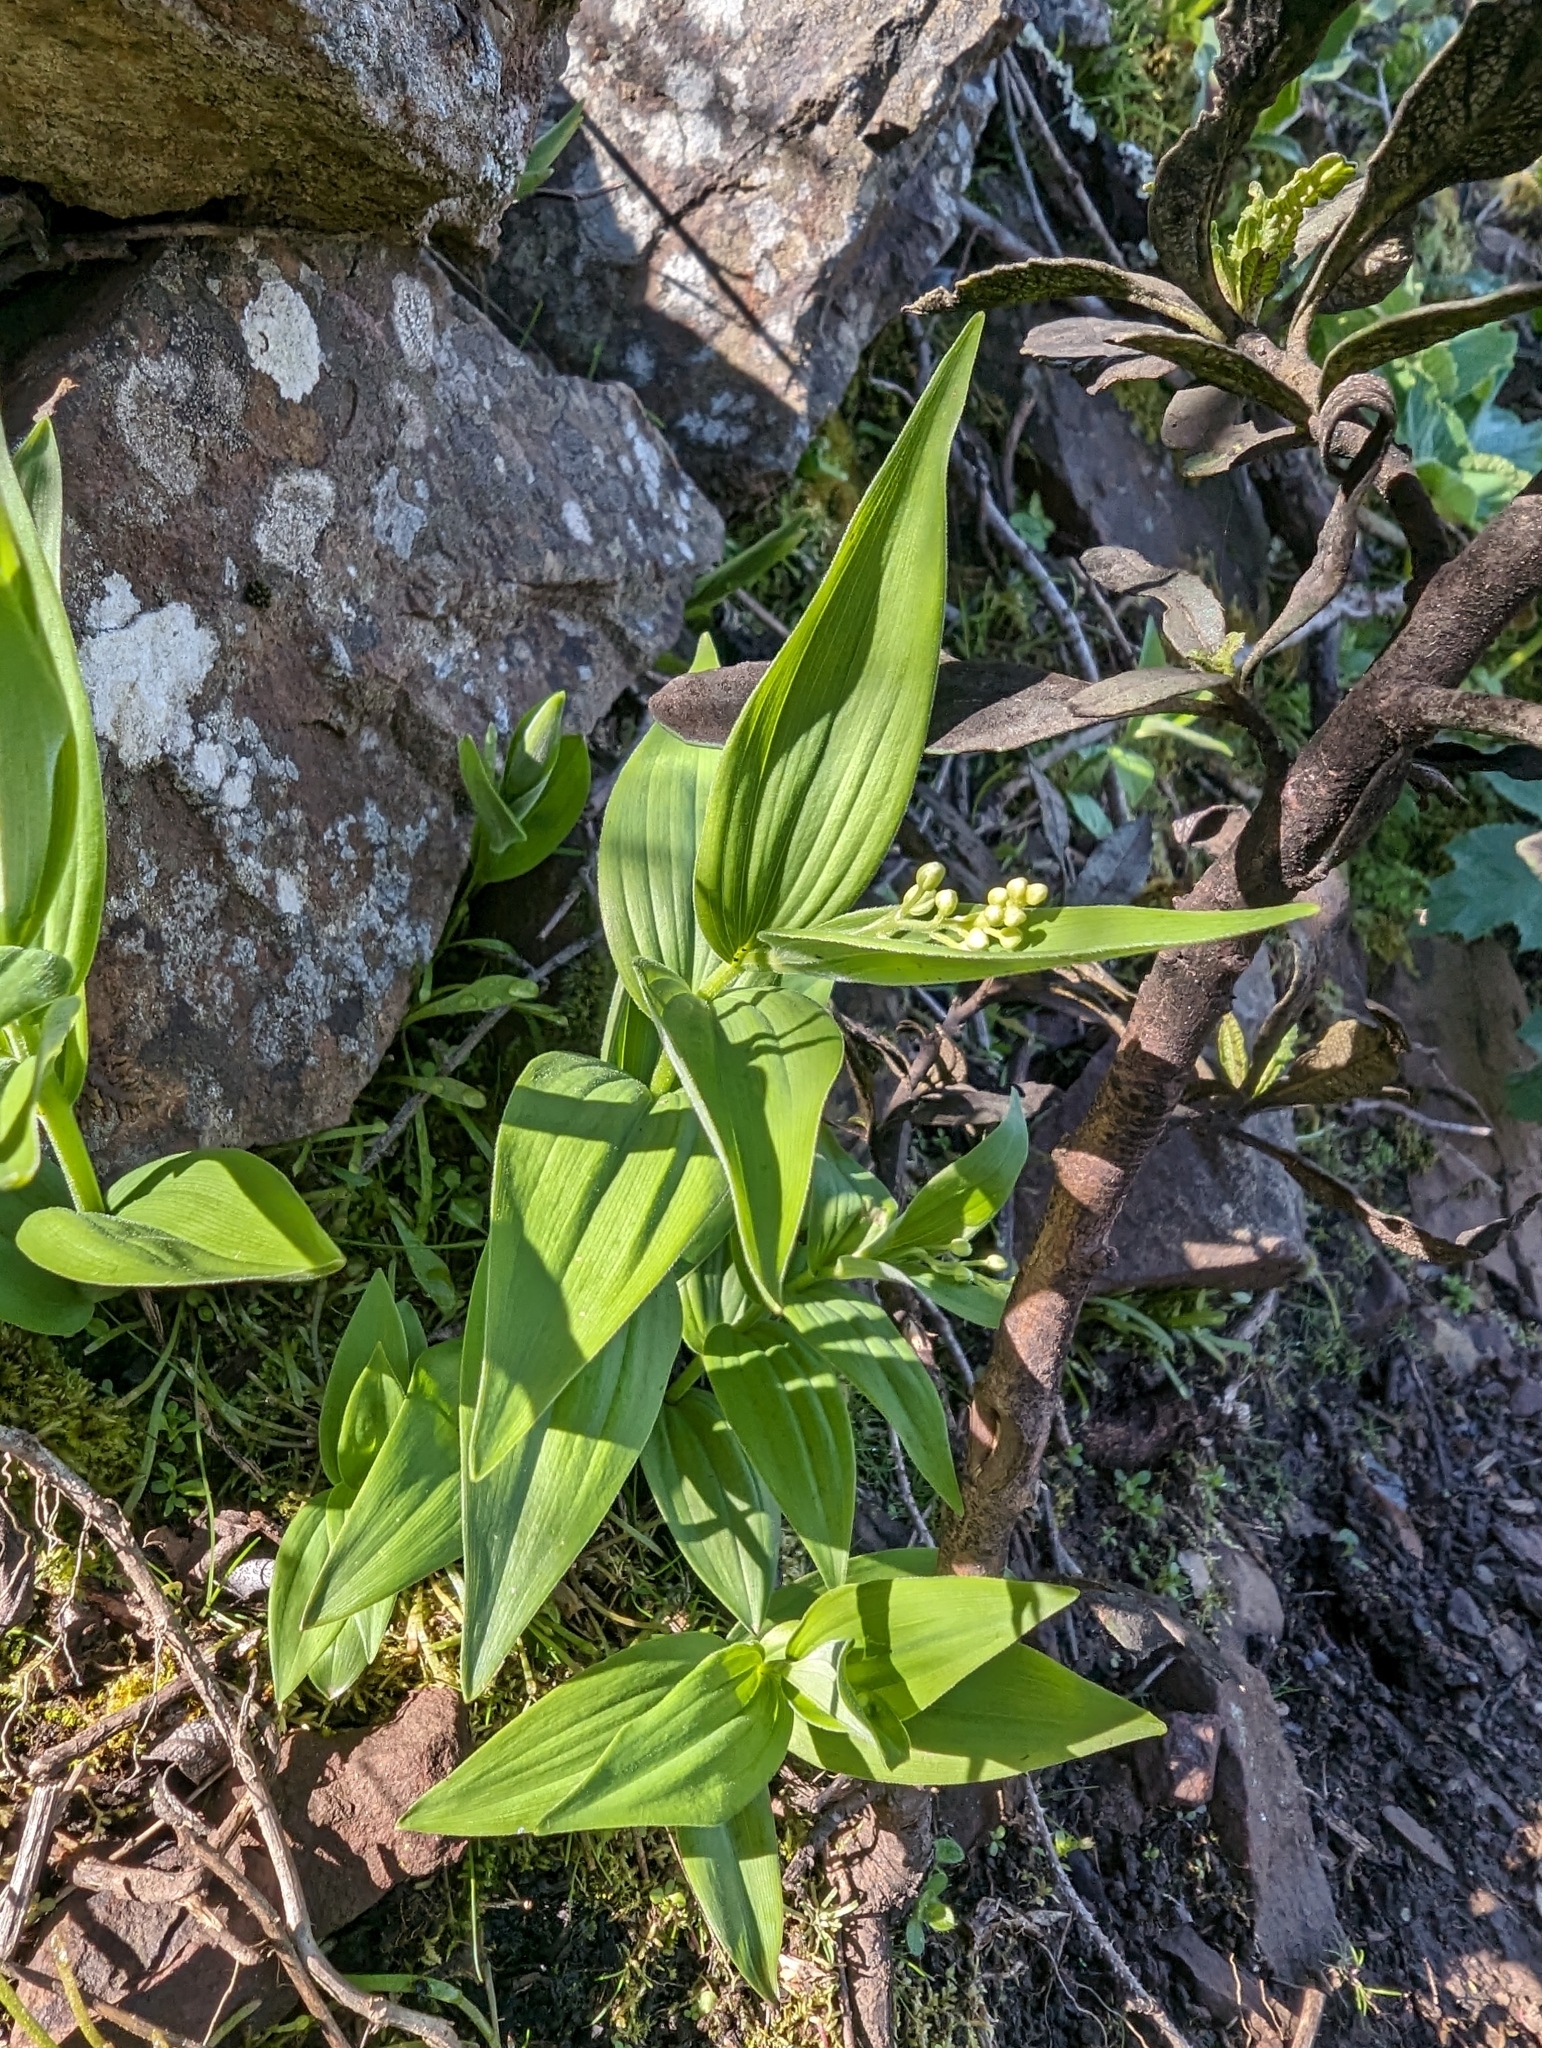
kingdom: Plantae
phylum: Tracheophyta
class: Liliopsida
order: Asparagales
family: Asparagaceae
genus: Maianthemum
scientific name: Maianthemum stellatum
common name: Little false solomon's seal
